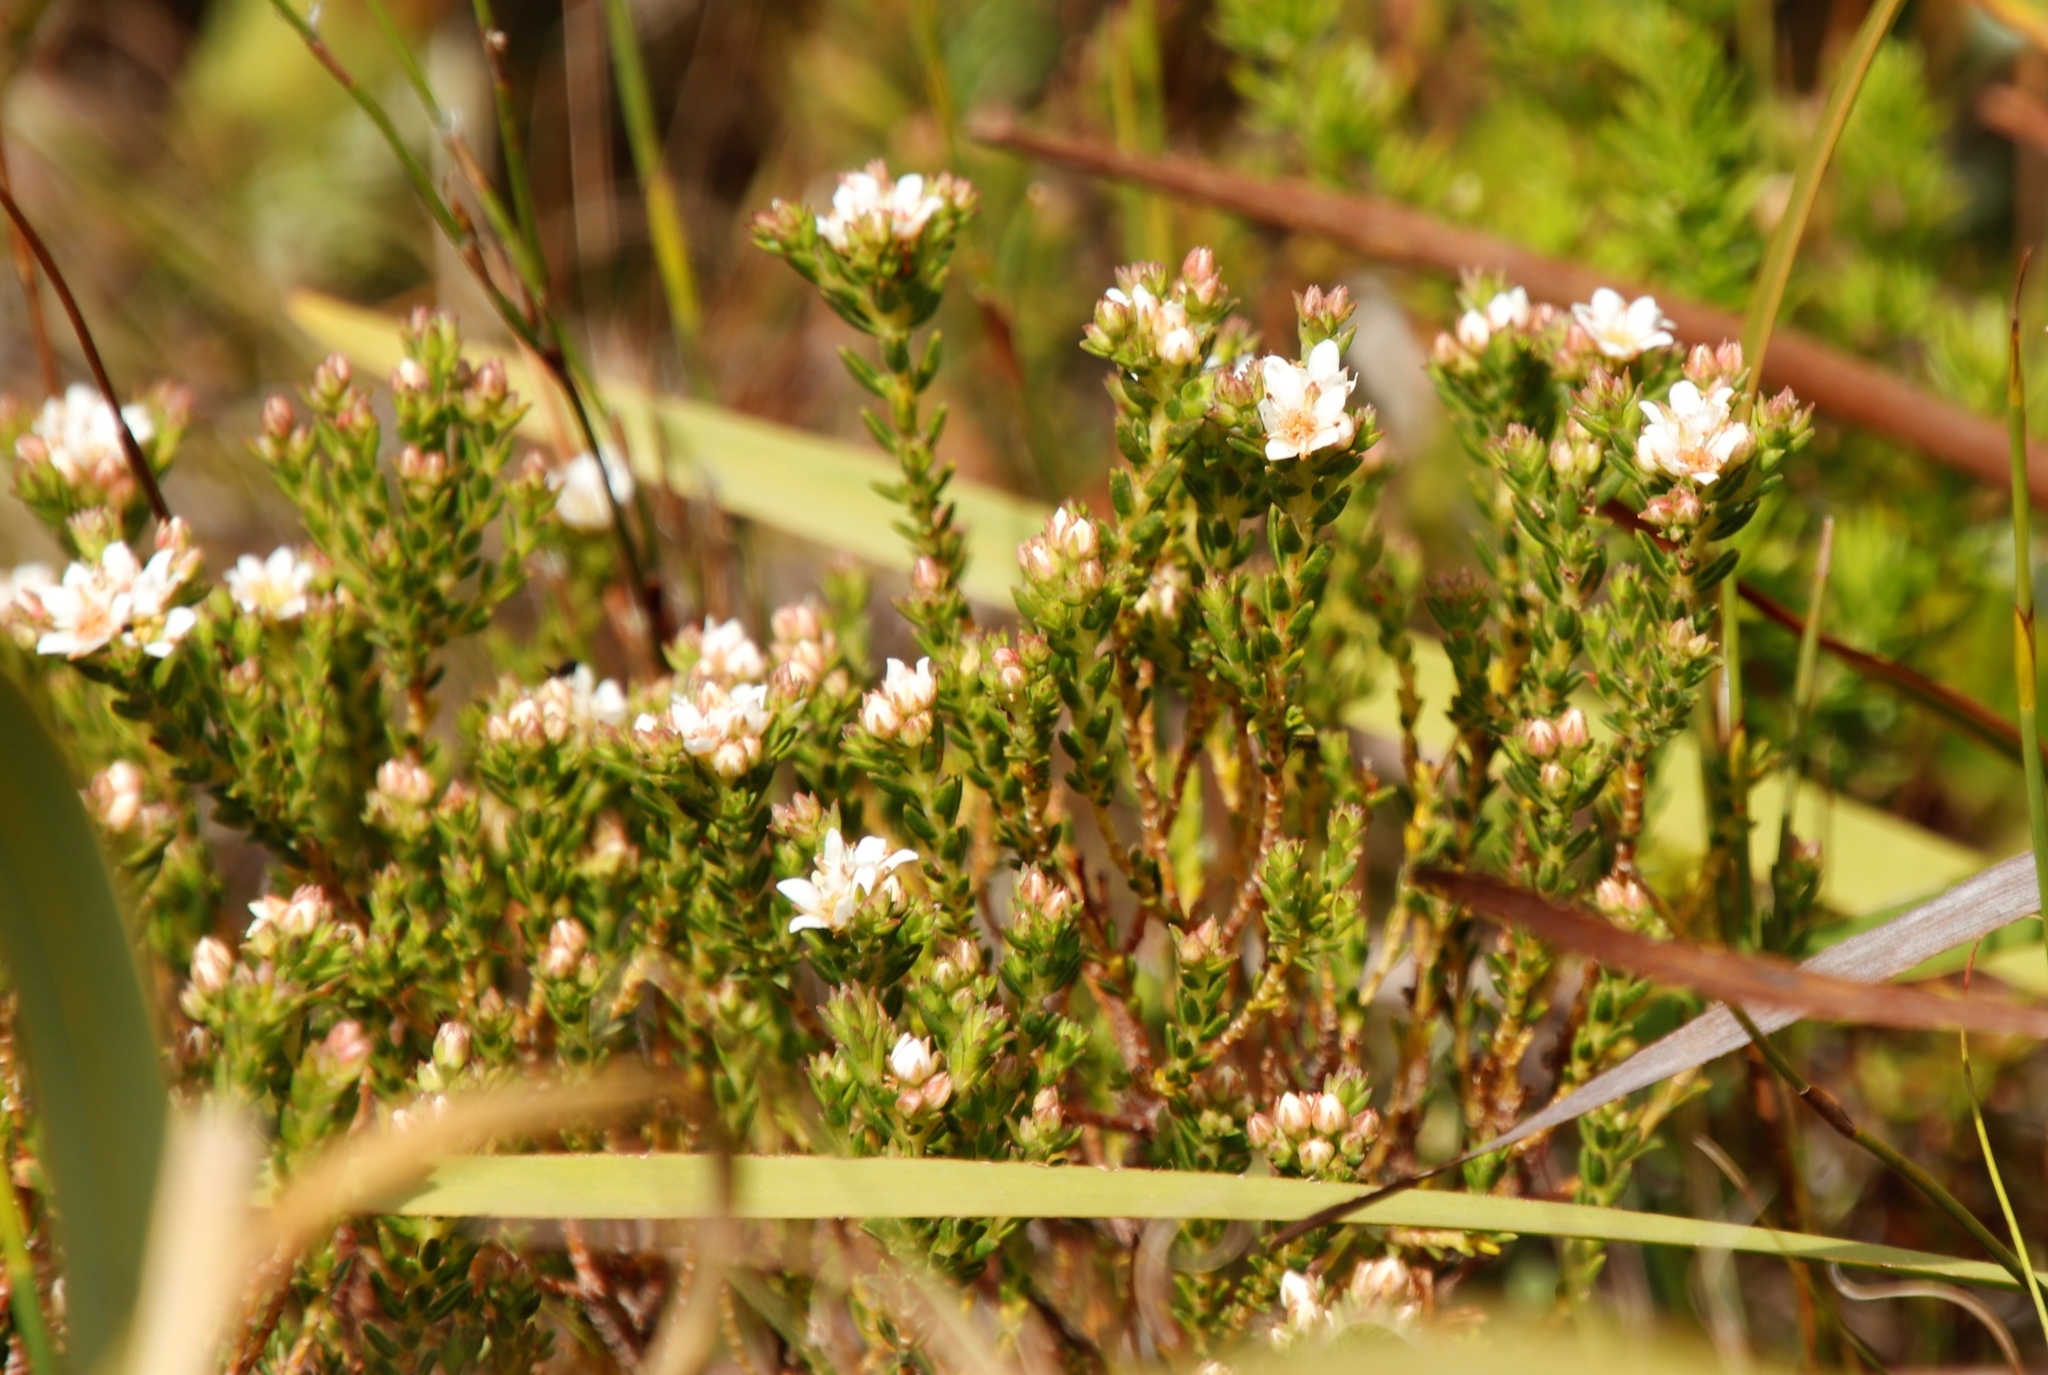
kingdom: Plantae
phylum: Tracheophyta
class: Magnoliopsida
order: Sapindales
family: Rutaceae
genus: Diosma
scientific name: Diosma oppositifolia
